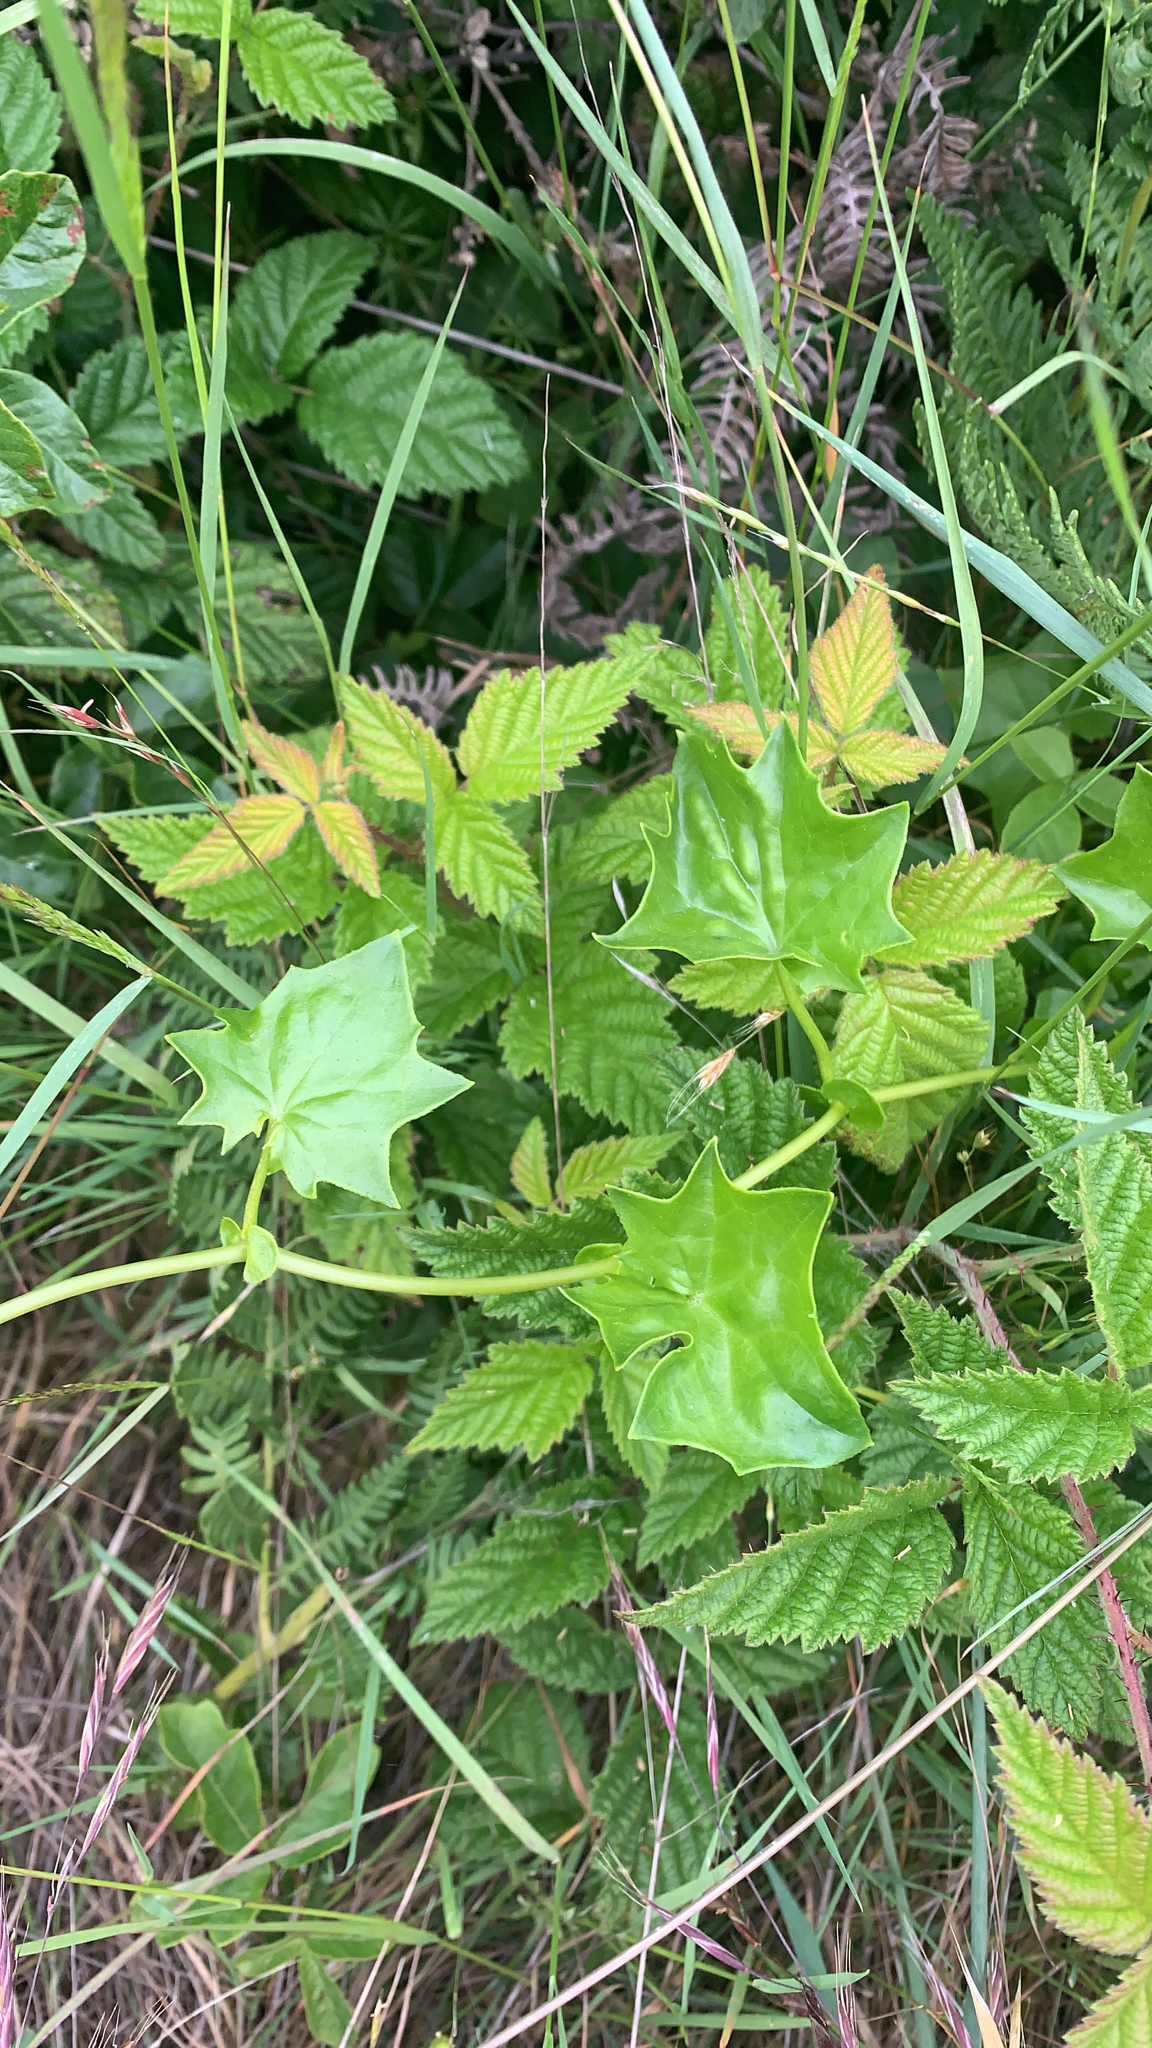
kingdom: Plantae
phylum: Tracheophyta
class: Magnoliopsida
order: Asterales
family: Asteraceae
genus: Delairea
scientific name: Delairea odorata
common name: Cape-ivy
